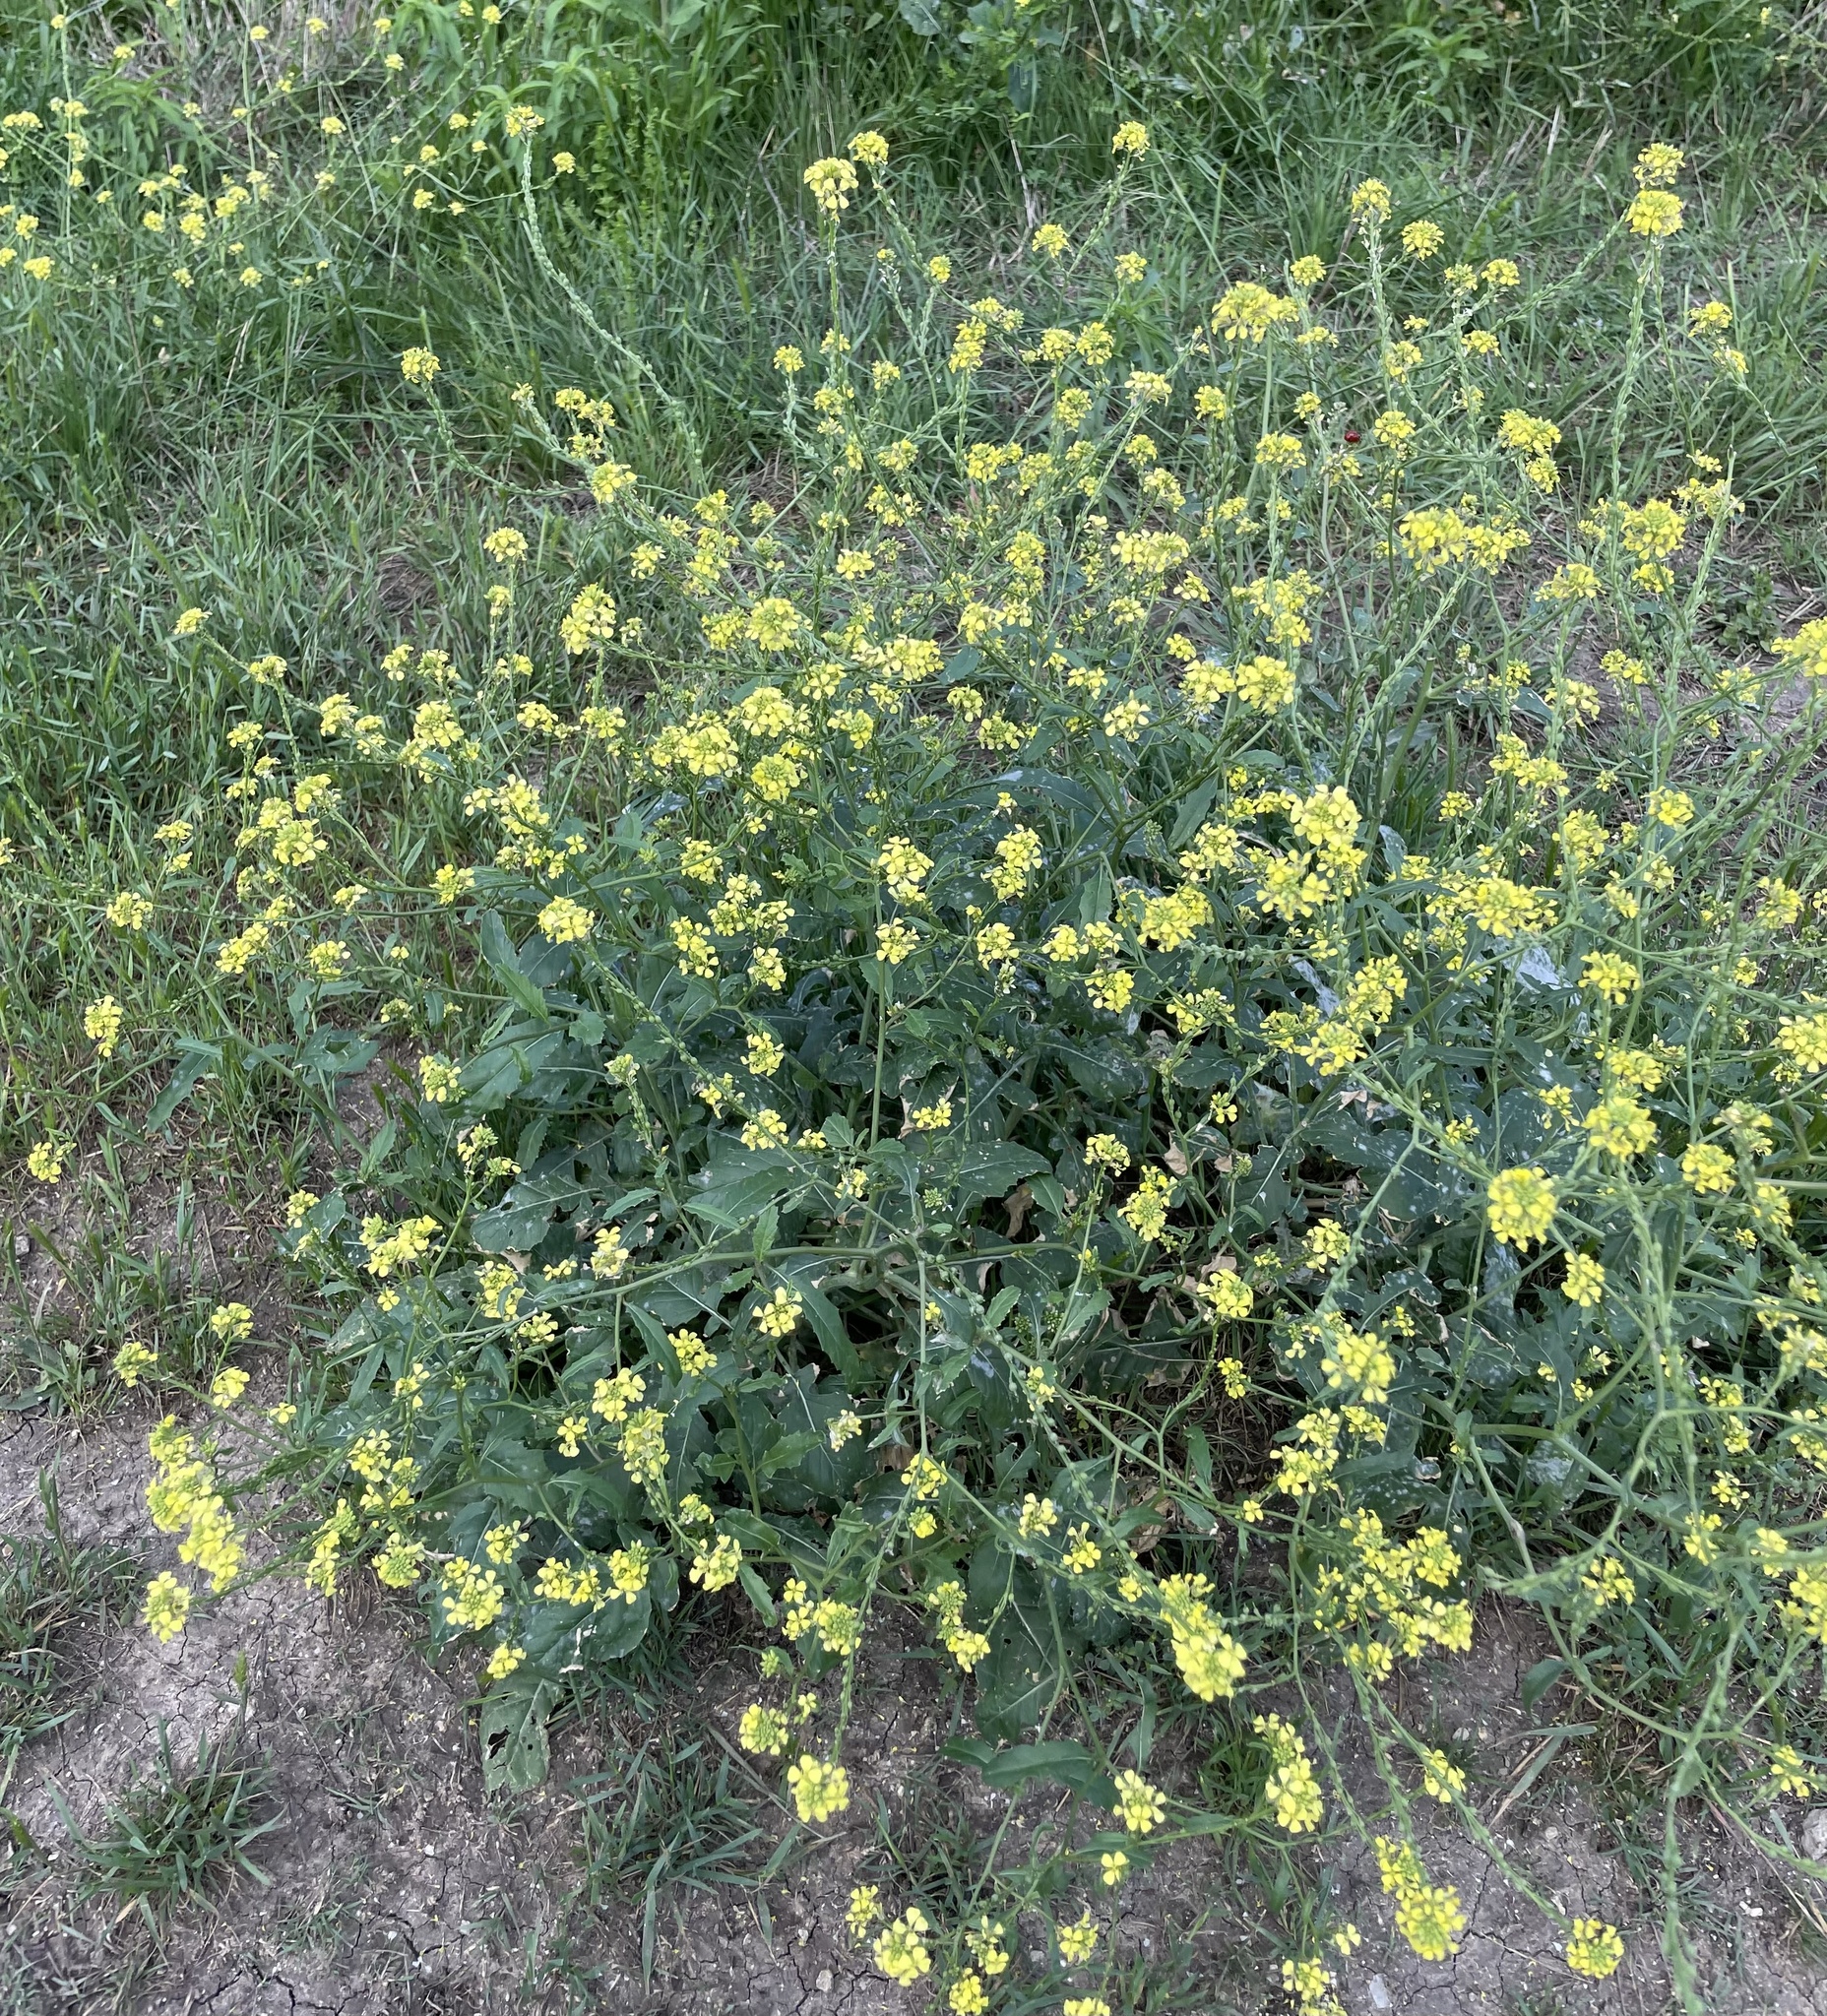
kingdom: Plantae
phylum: Tracheophyta
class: Magnoliopsida
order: Brassicales
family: Brassicaceae
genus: Rapistrum
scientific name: Rapistrum rugosum
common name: Annual bastardcabbage
